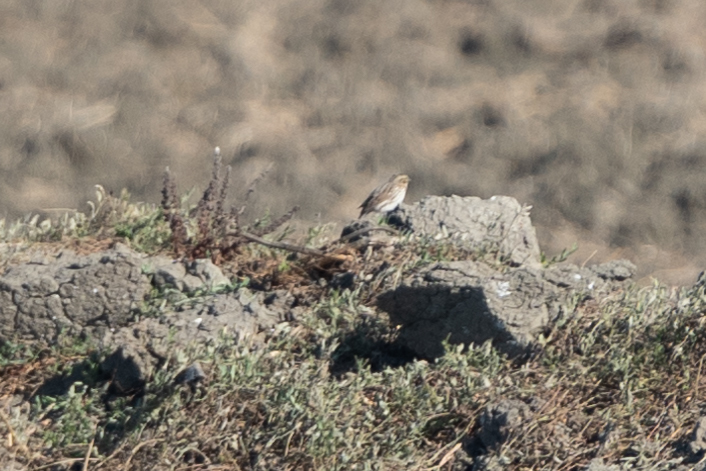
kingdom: Animalia
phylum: Chordata
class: Aves
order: Passeriformes
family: Passerellidae
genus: Passerculus
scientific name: Passerculus sandwichensis
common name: Savannah sparrow
